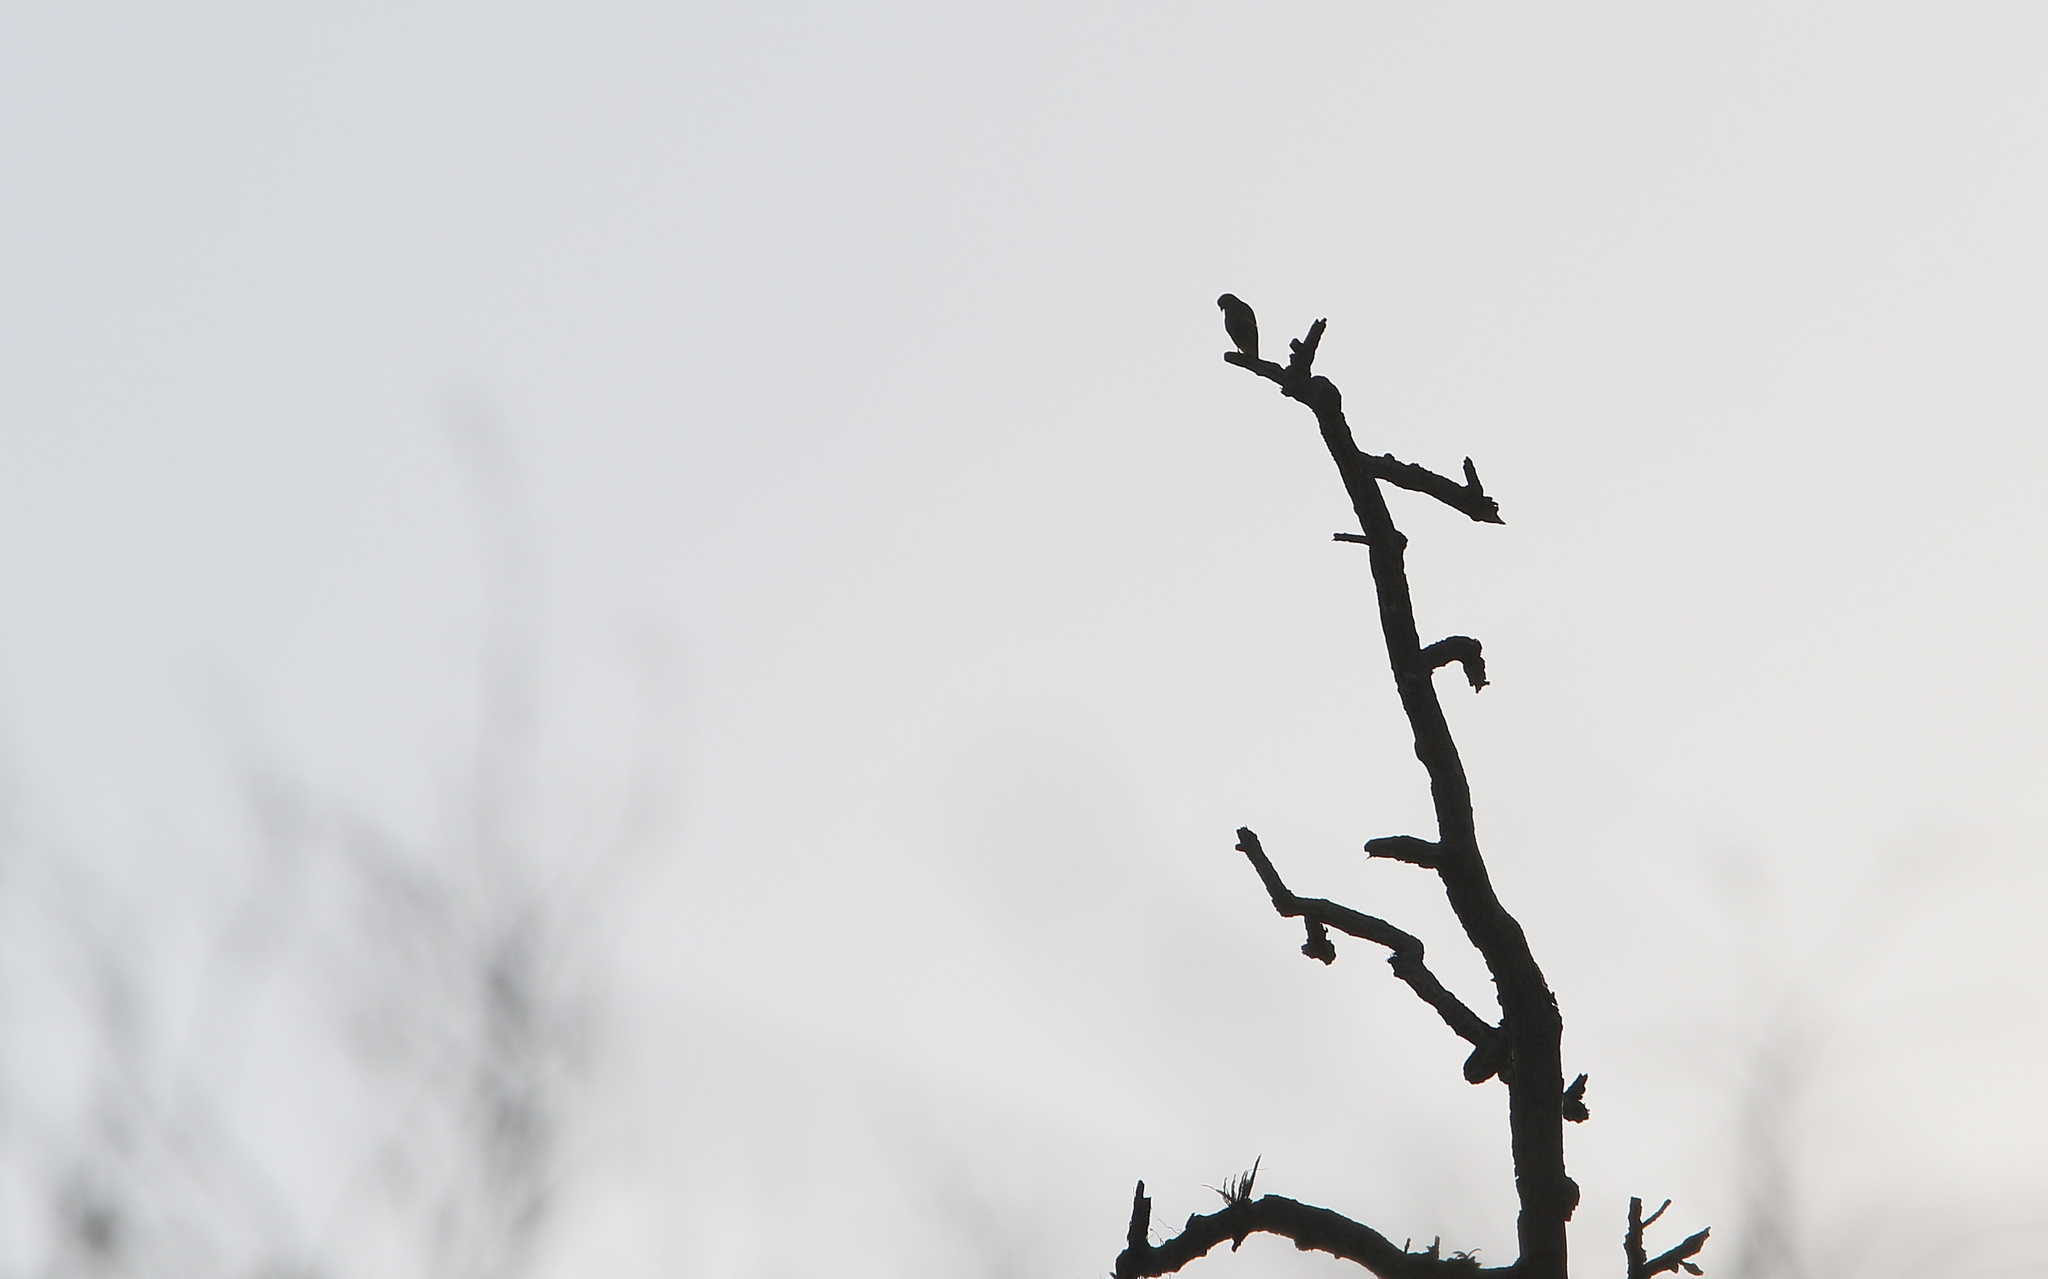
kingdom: Animalia
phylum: Chordata
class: Aves
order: Accipitriformes
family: Accipitridae
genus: Butastur
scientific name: Butastur liventer
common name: Rufous-winged buzzard
